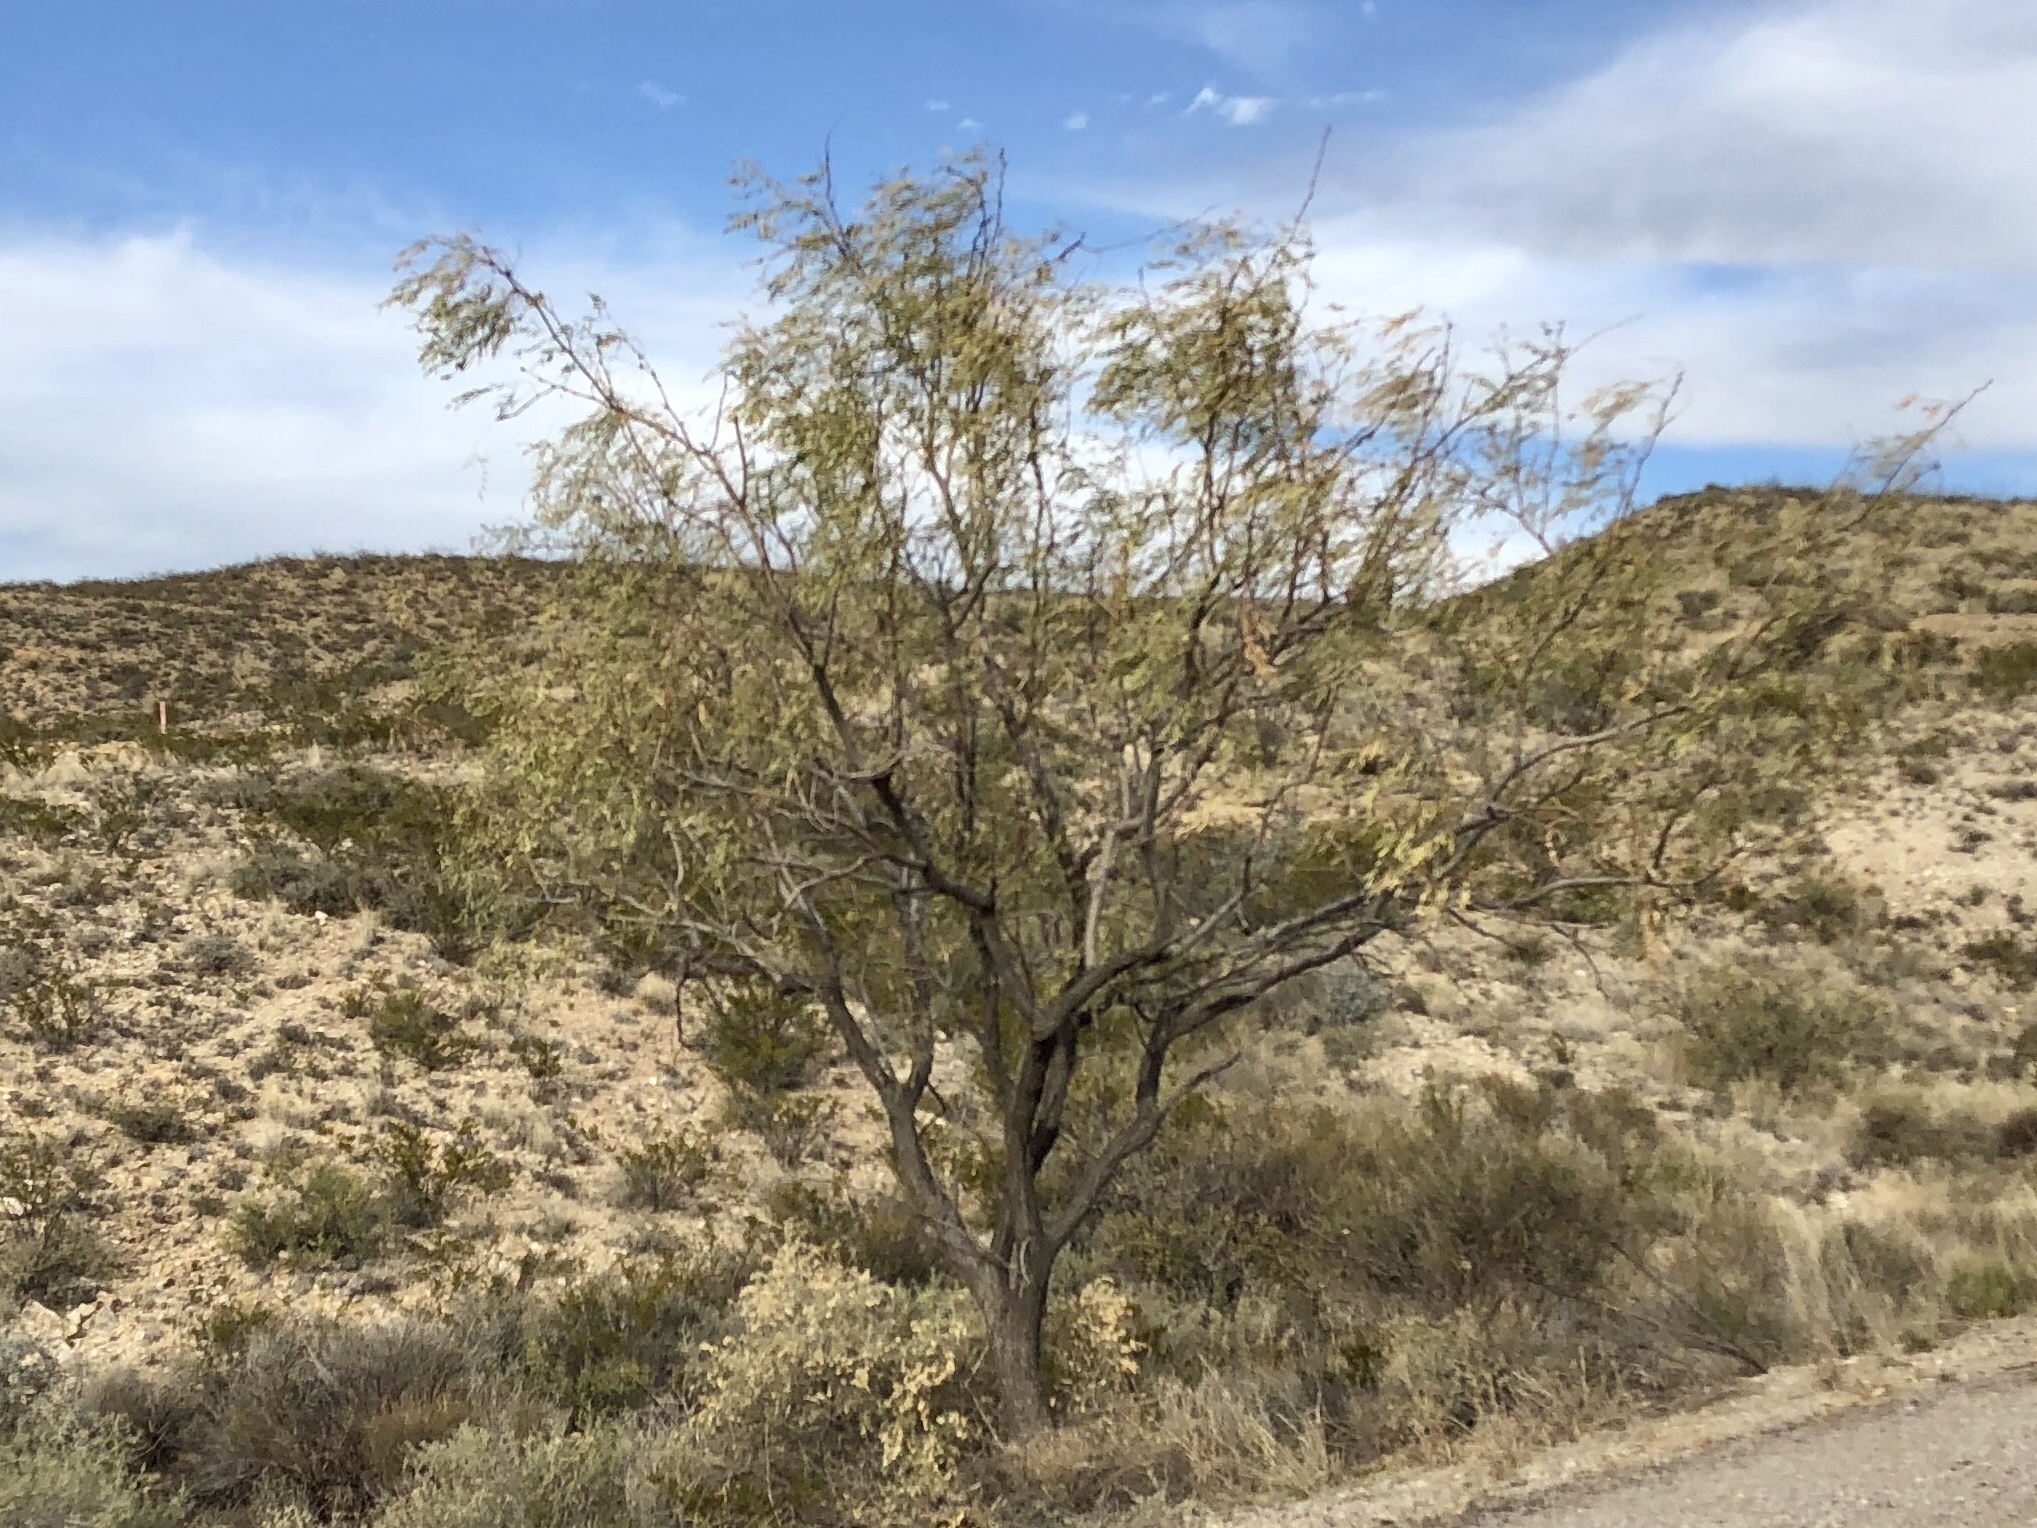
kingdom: Plantae
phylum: Tracheophyta
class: Magnoliopsida
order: Fabales
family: Fabaceae
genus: Prosopis
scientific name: Prosopis glandulosa
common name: Honey mesquite
